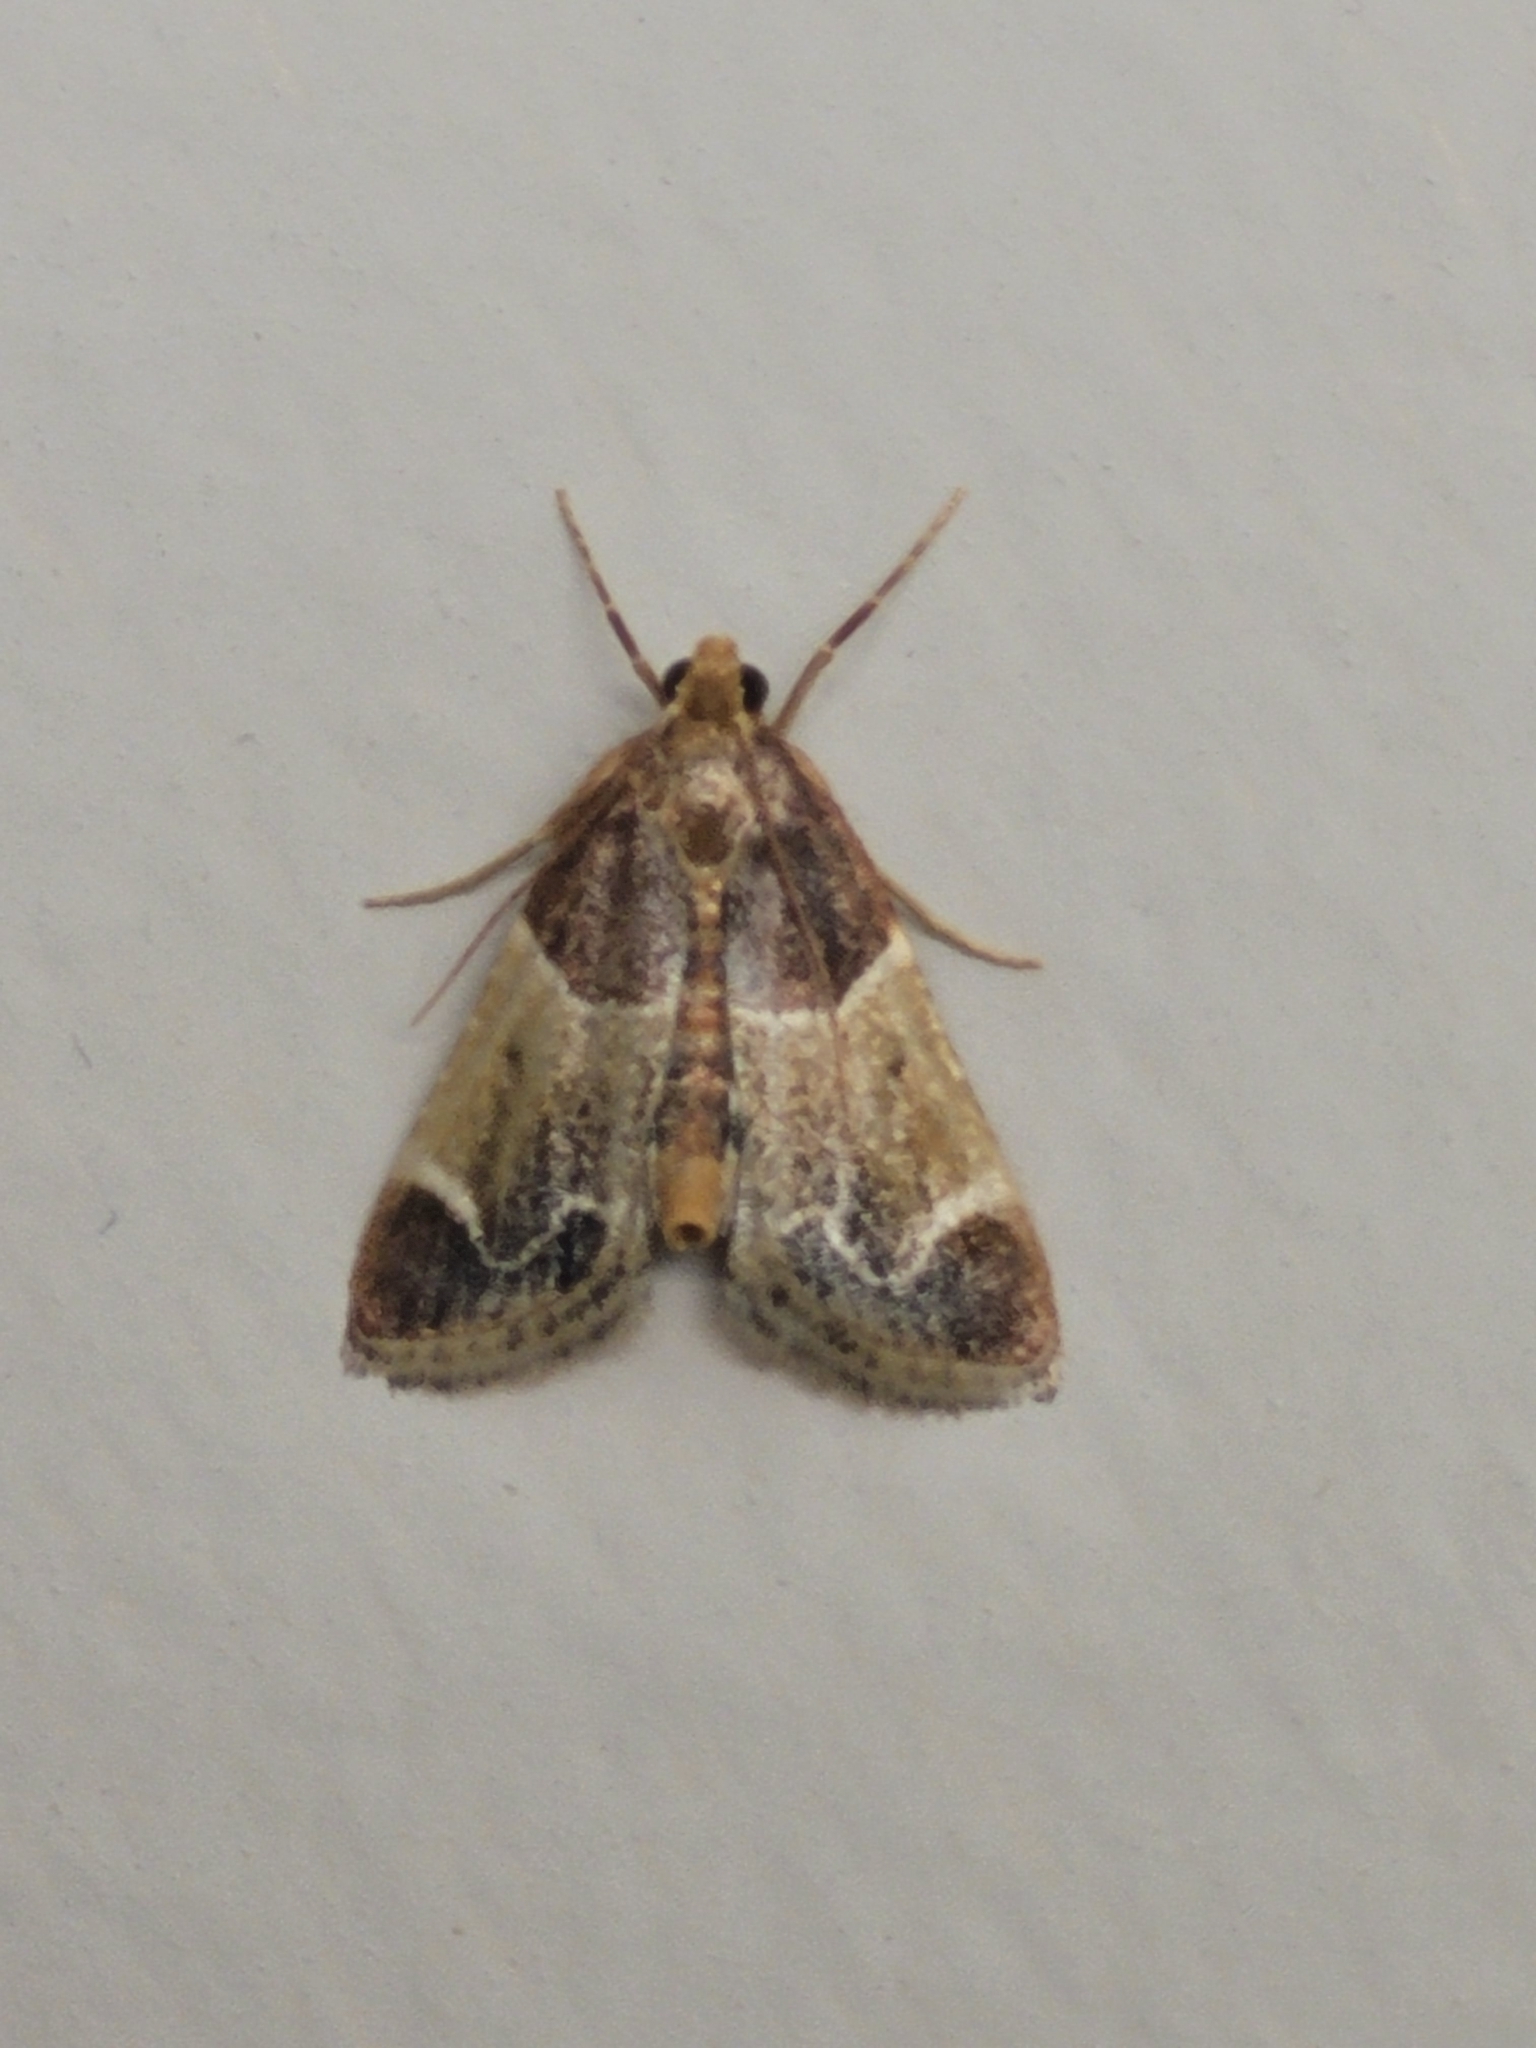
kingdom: Animalia
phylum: Arthropoda
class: Insecta
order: Lepidoptera
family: Pyralidae
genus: Pyralis
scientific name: Pyralis farinalis
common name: Meal moth
